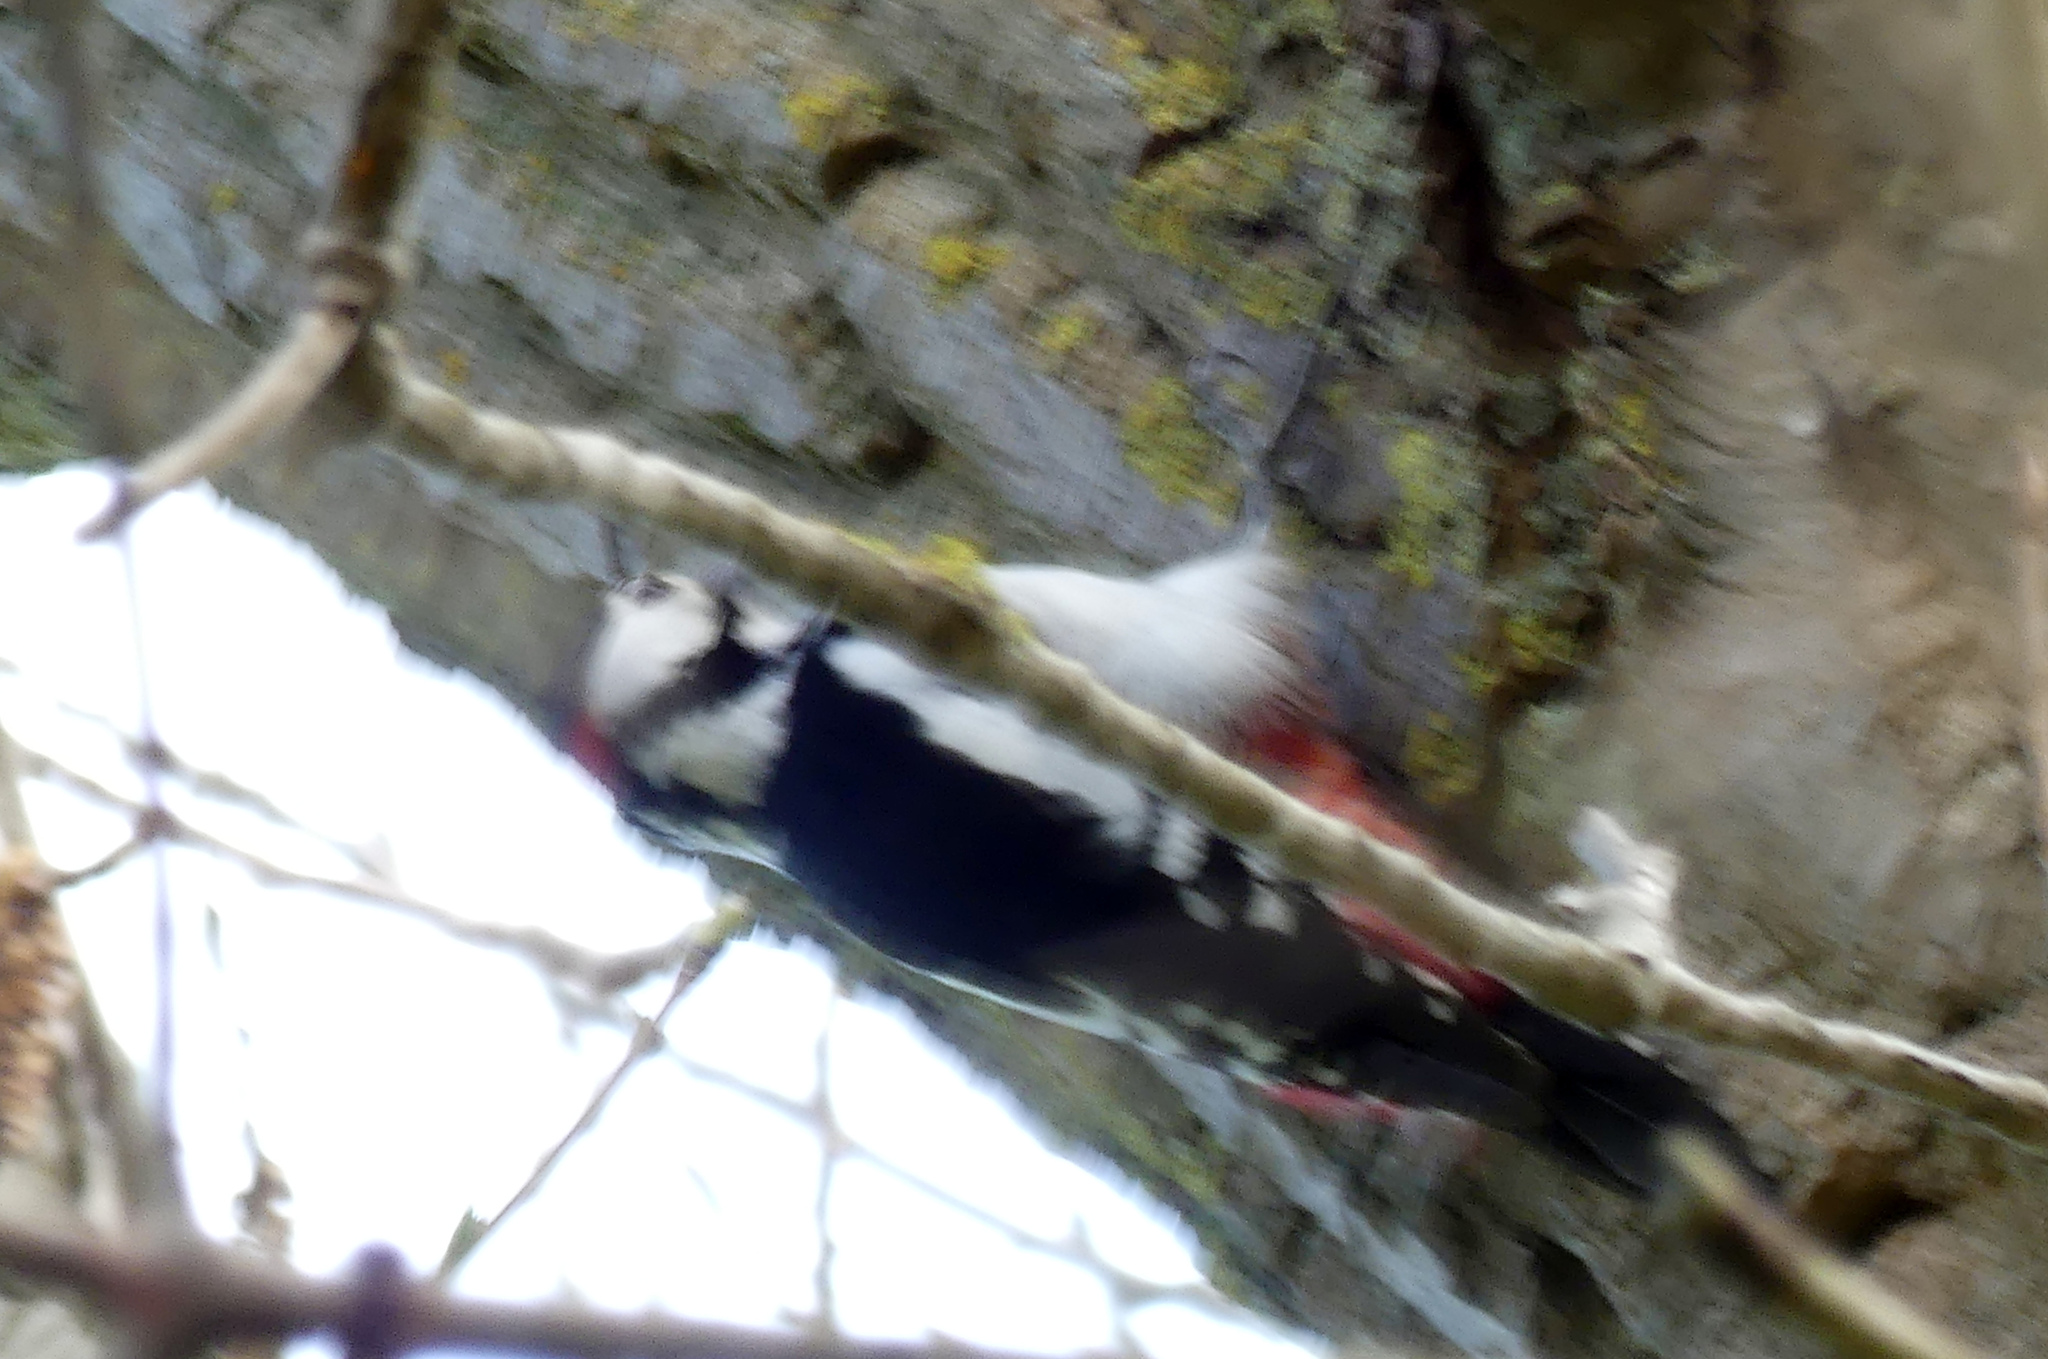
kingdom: Animalia
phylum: Chordata
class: Aves
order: Piciformes
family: Picidae
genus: Dendrocopos
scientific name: Dendrocopos major
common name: Great spotted woodpecker
